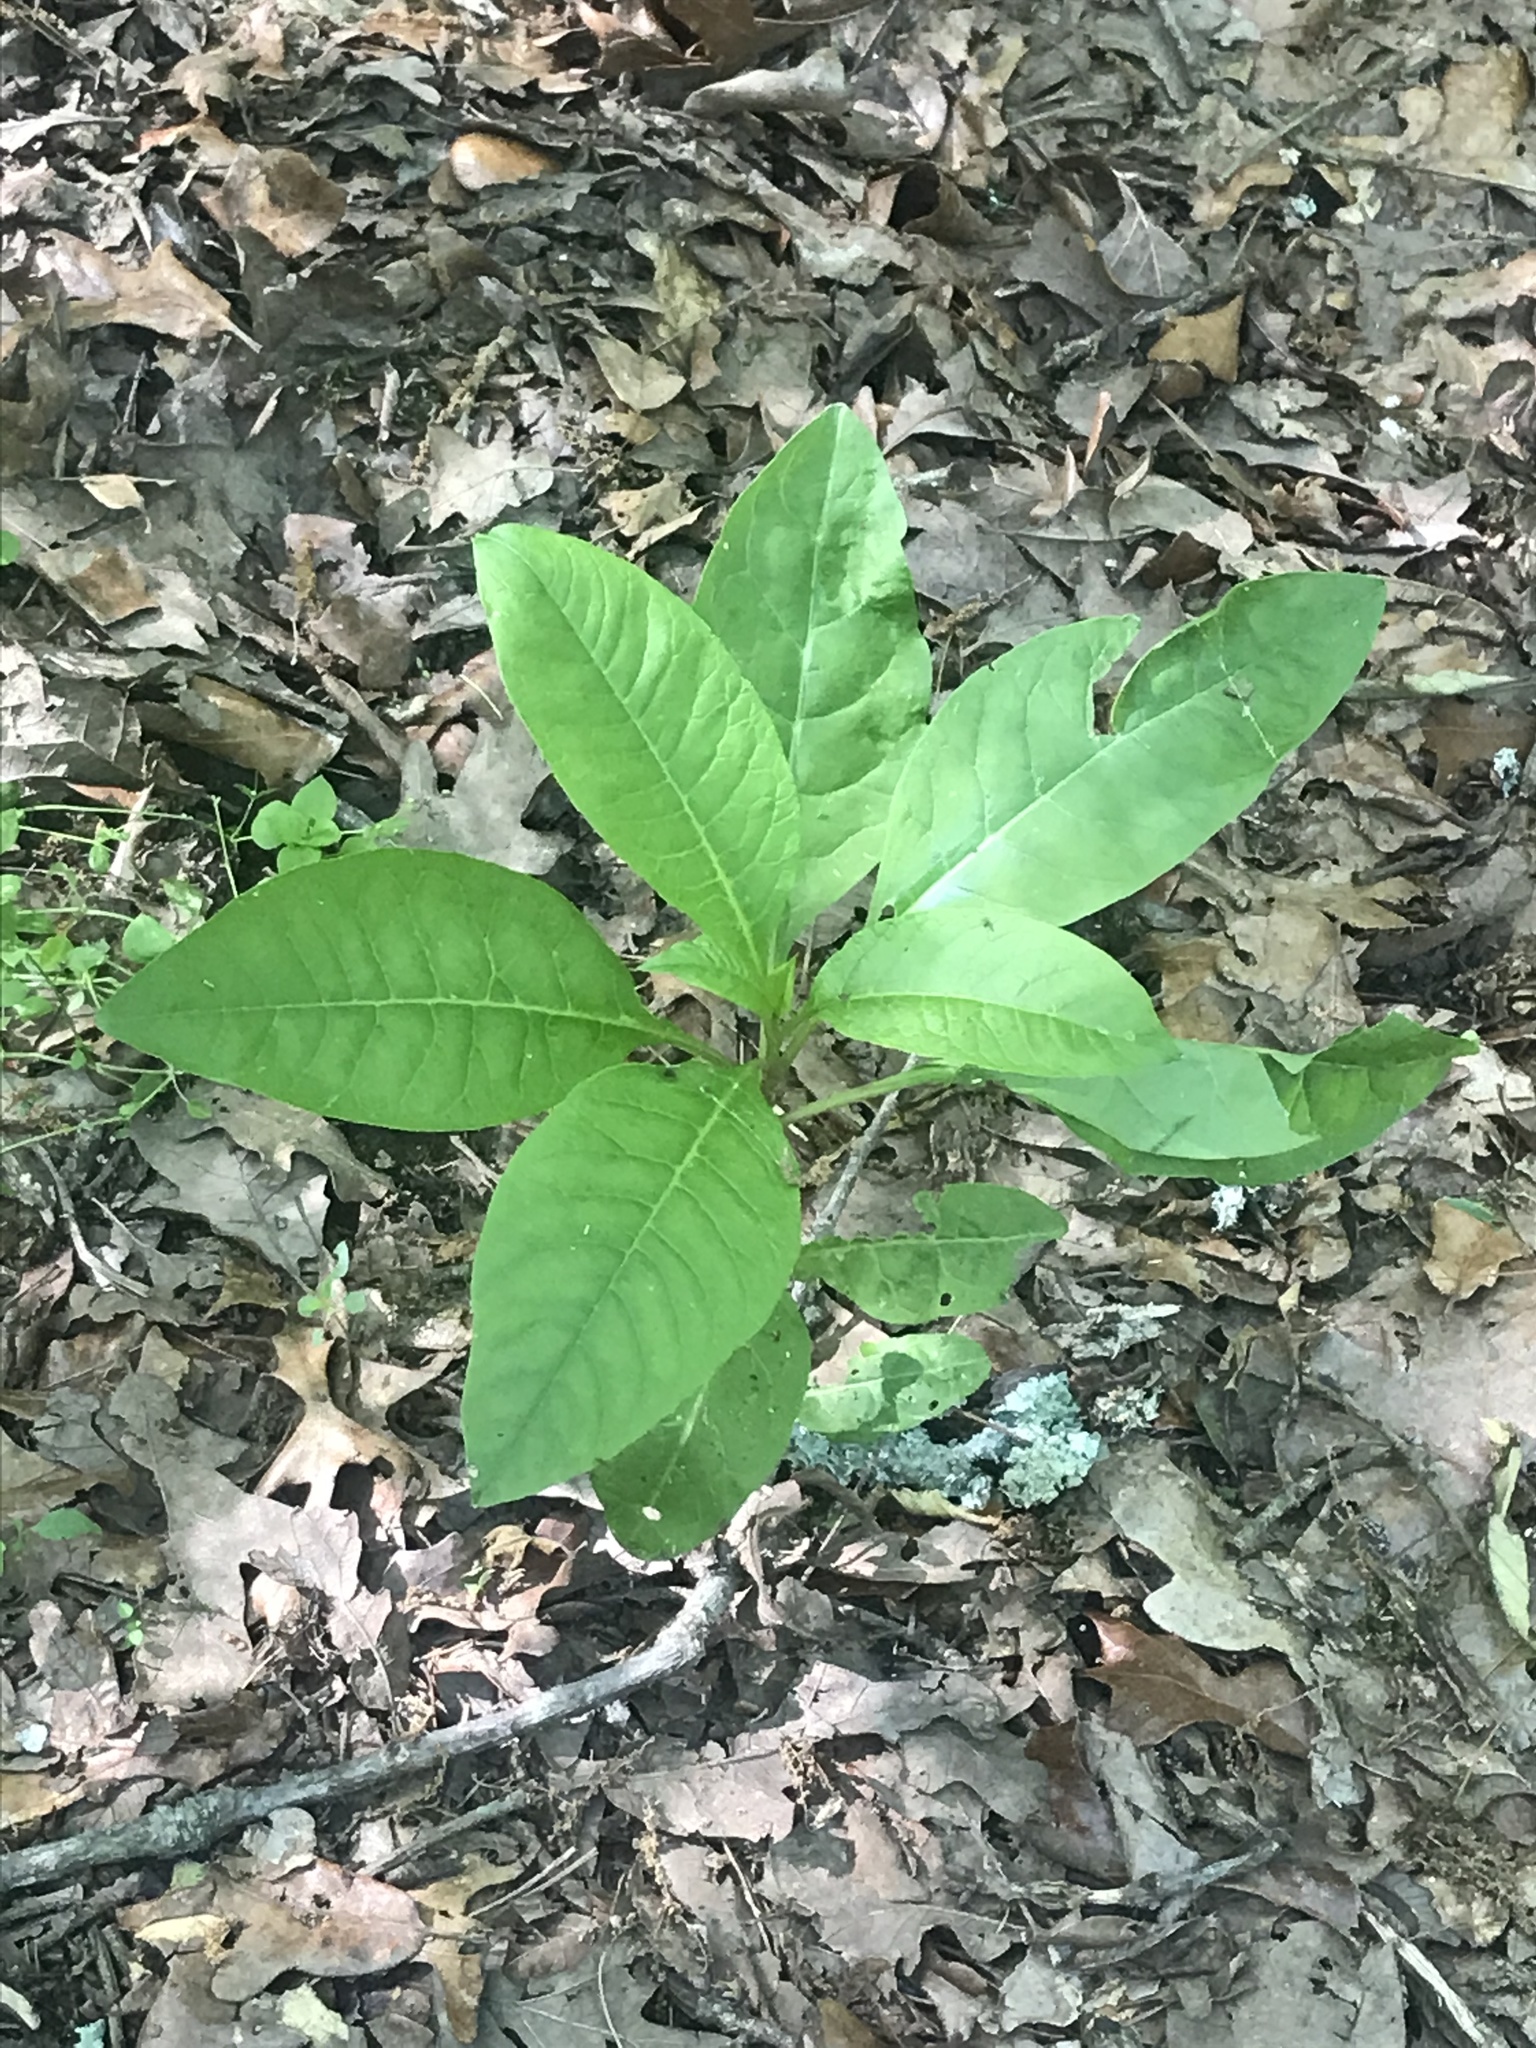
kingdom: Plantae
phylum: Tracheophyta
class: Magnoliopsida
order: Caryophyllales
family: Phytolaccaceae
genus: Phytolacca
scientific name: Phytolacca americana
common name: American pokeweed
